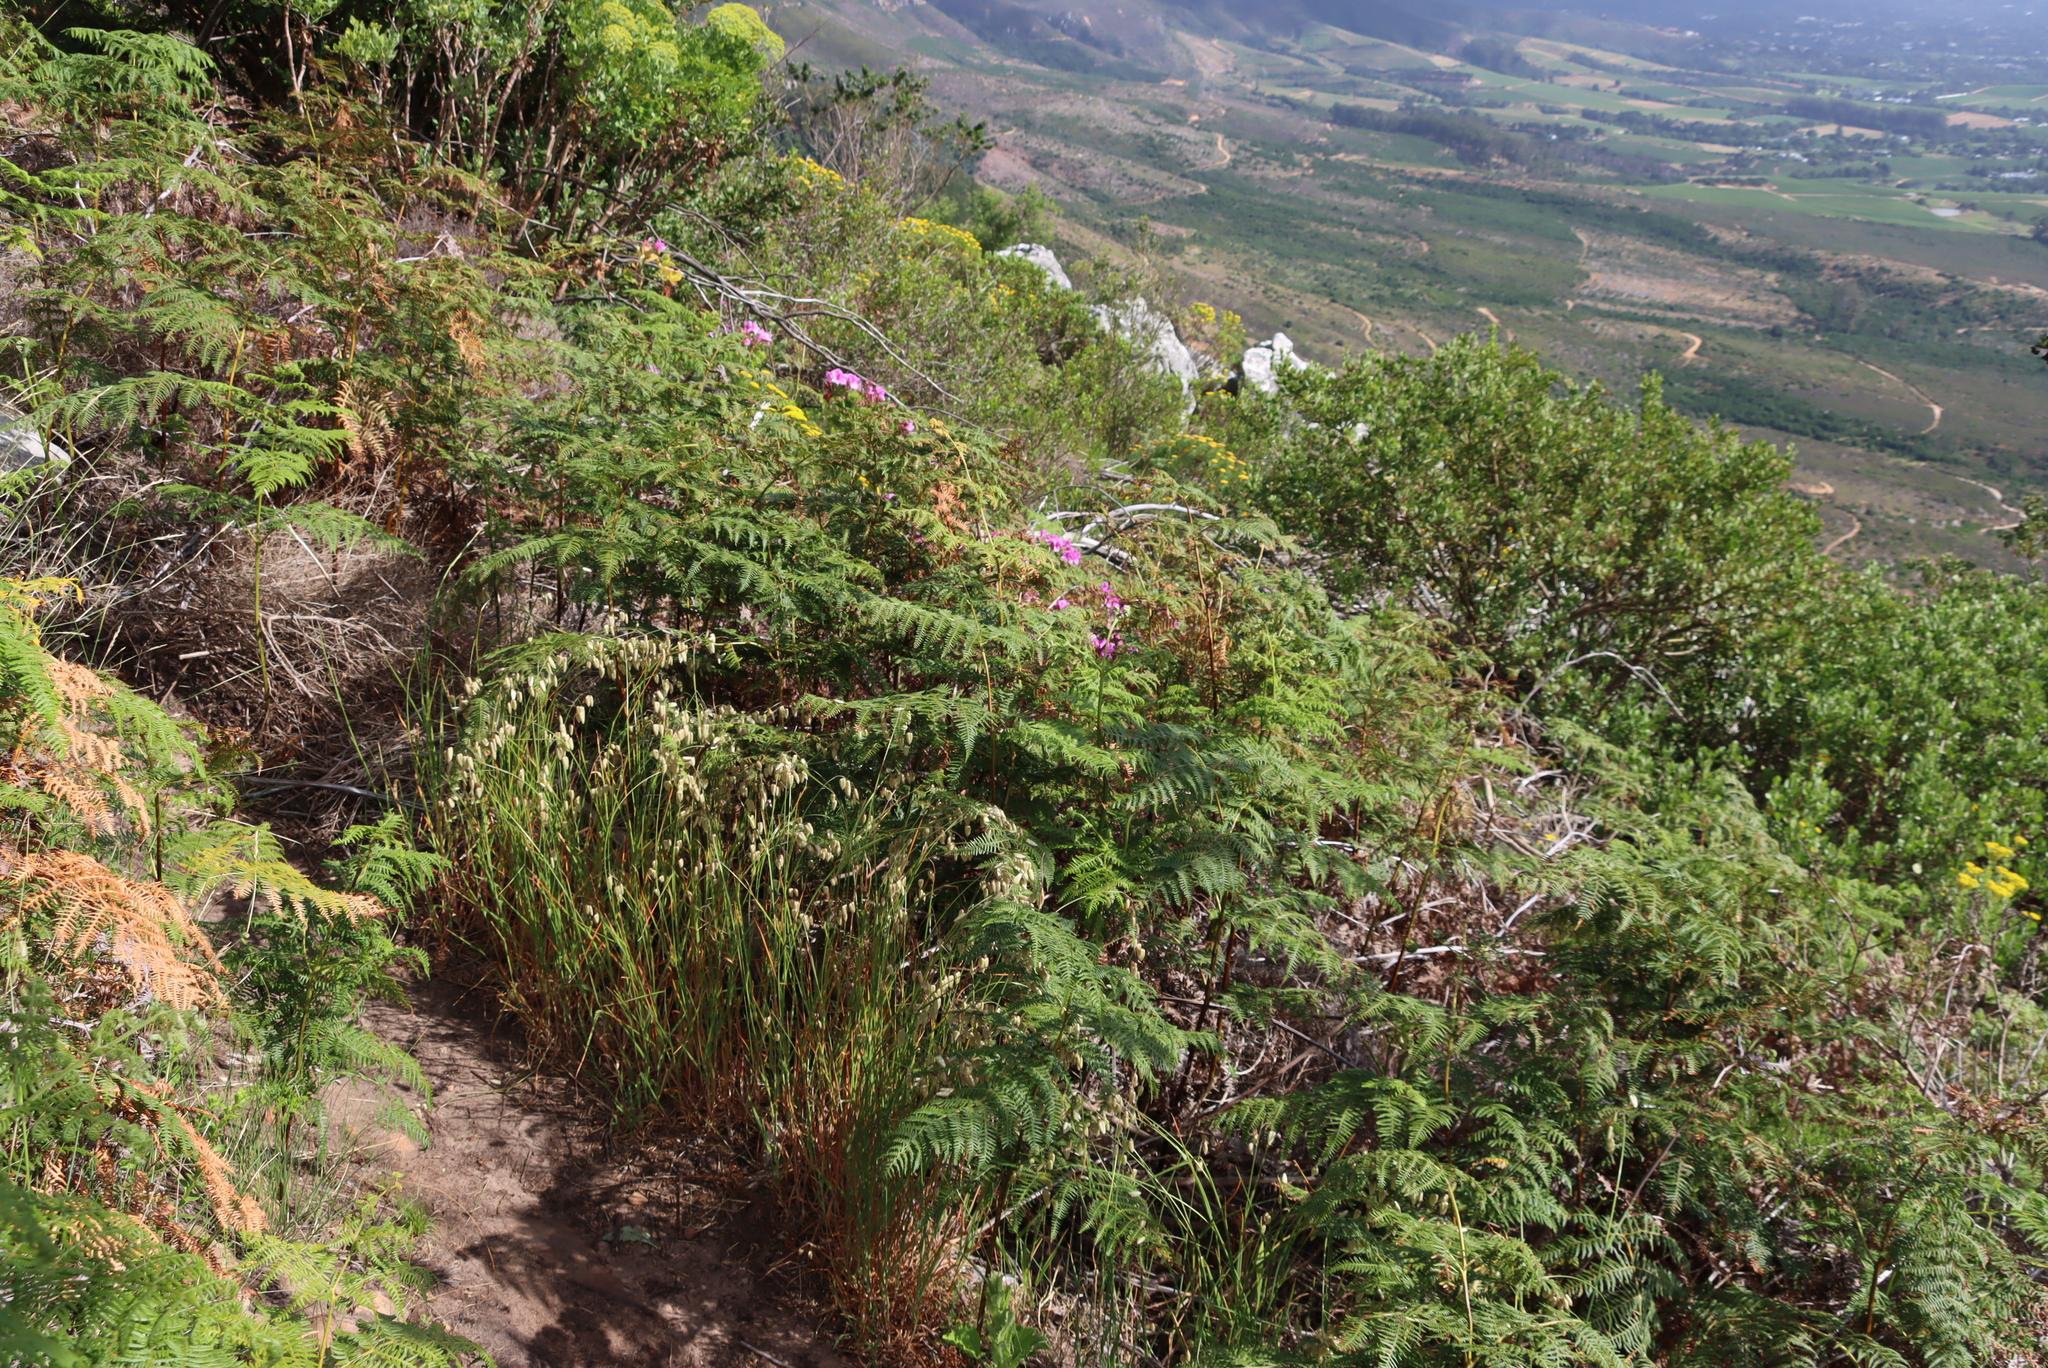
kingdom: Plantae
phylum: Tracheophyta
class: Polypodiopsida
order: Polypodiales
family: Dennstaedtiaceae
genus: Pteridium
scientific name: Pteridium aquilinum
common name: Bracken
